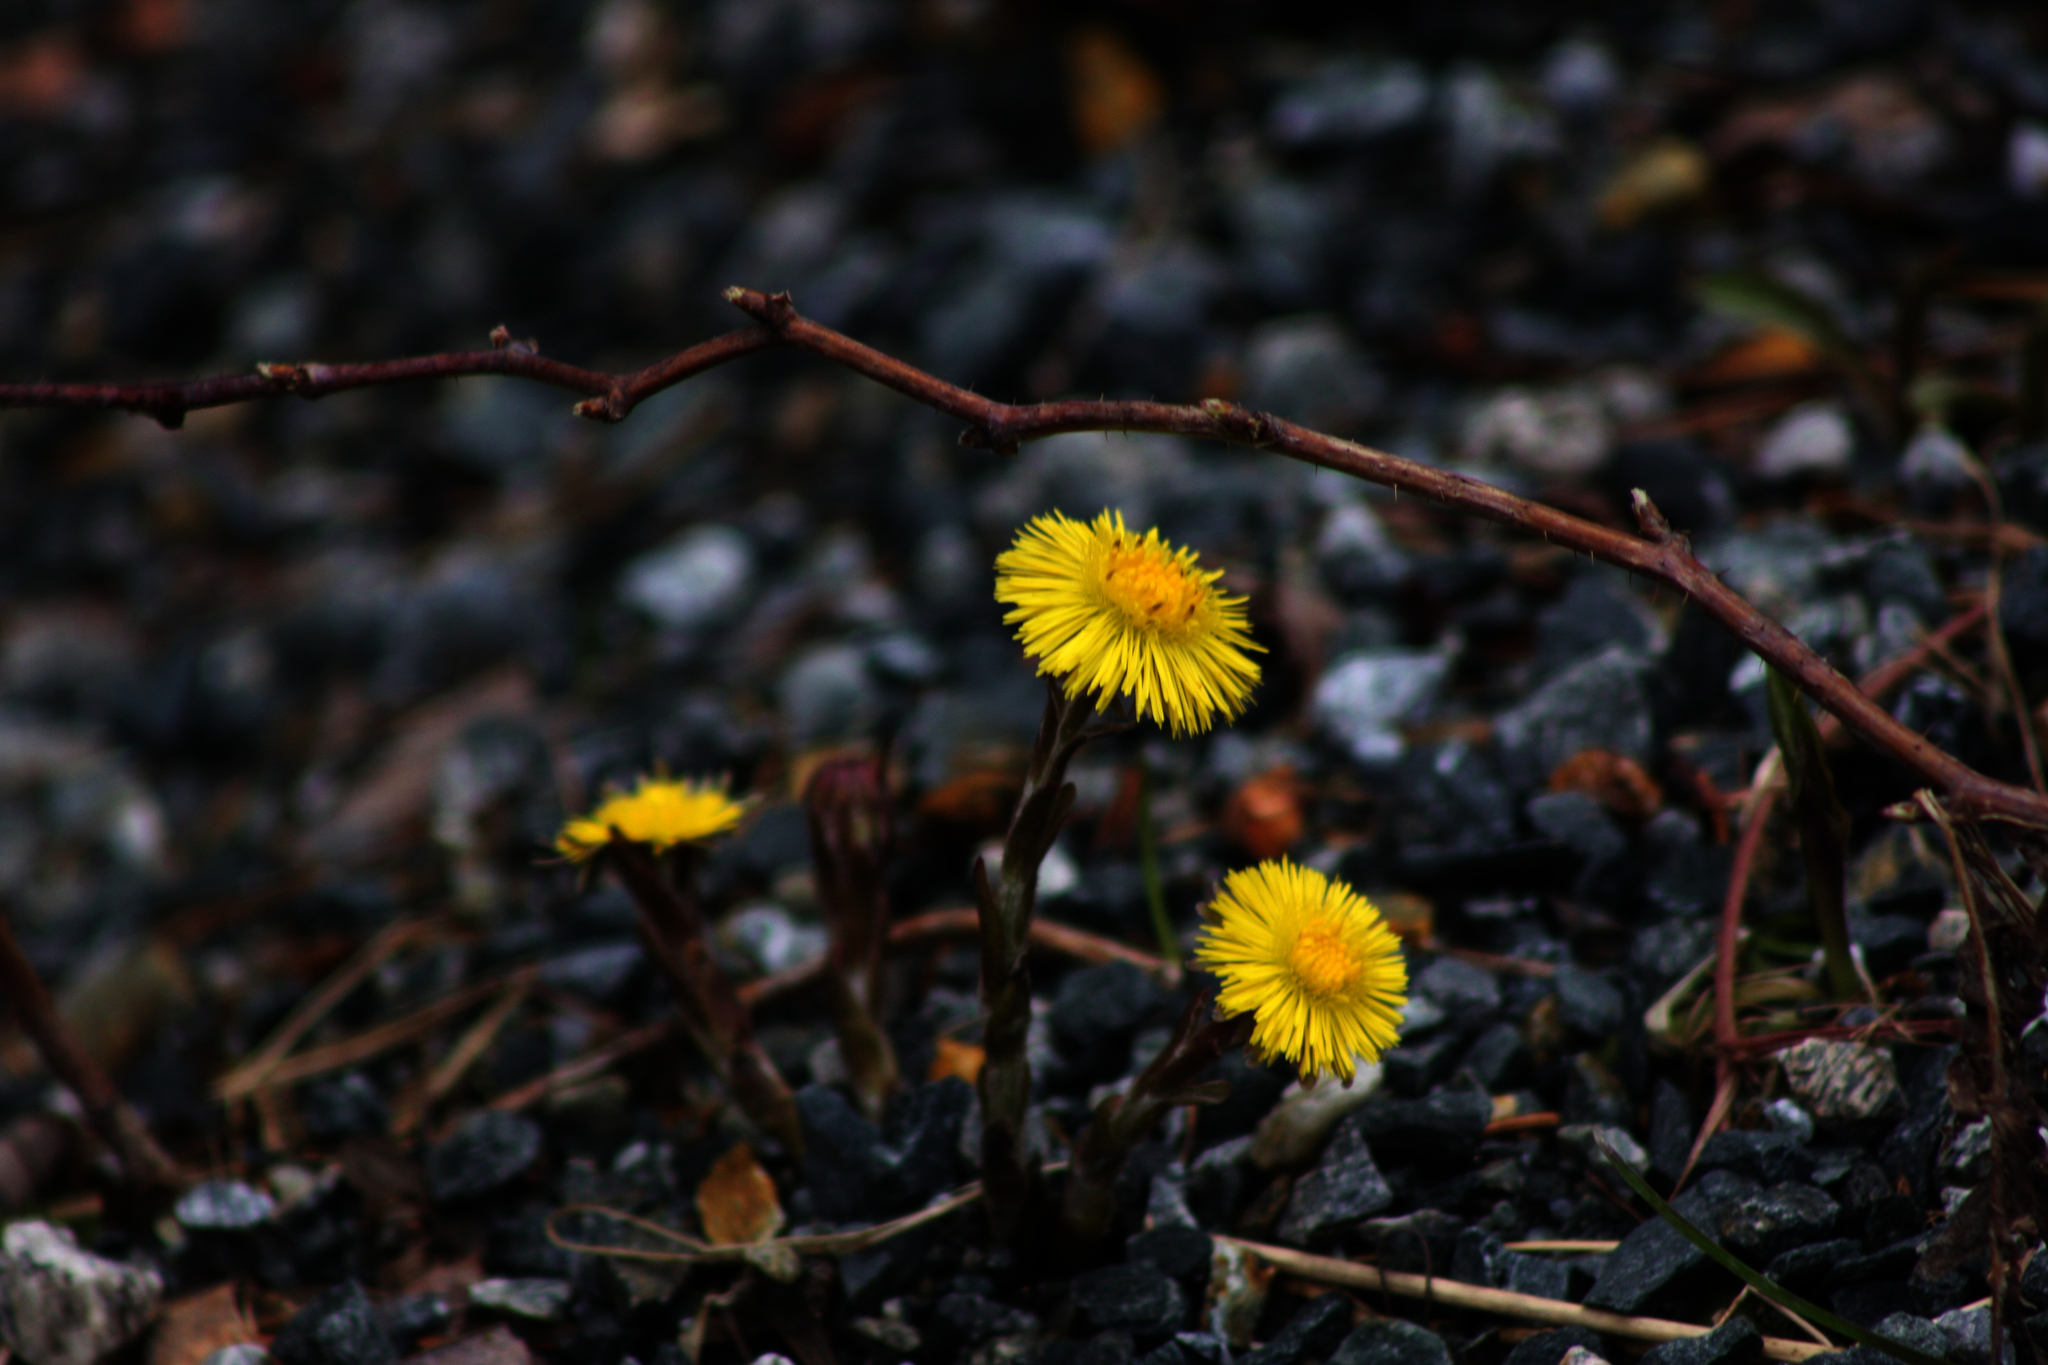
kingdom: Plantae
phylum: Tracheophyta
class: Magnoliopsida
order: Asterales
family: Asteraceae
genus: Tussilago
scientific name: Tussilago farfara
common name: Coltsfoot
